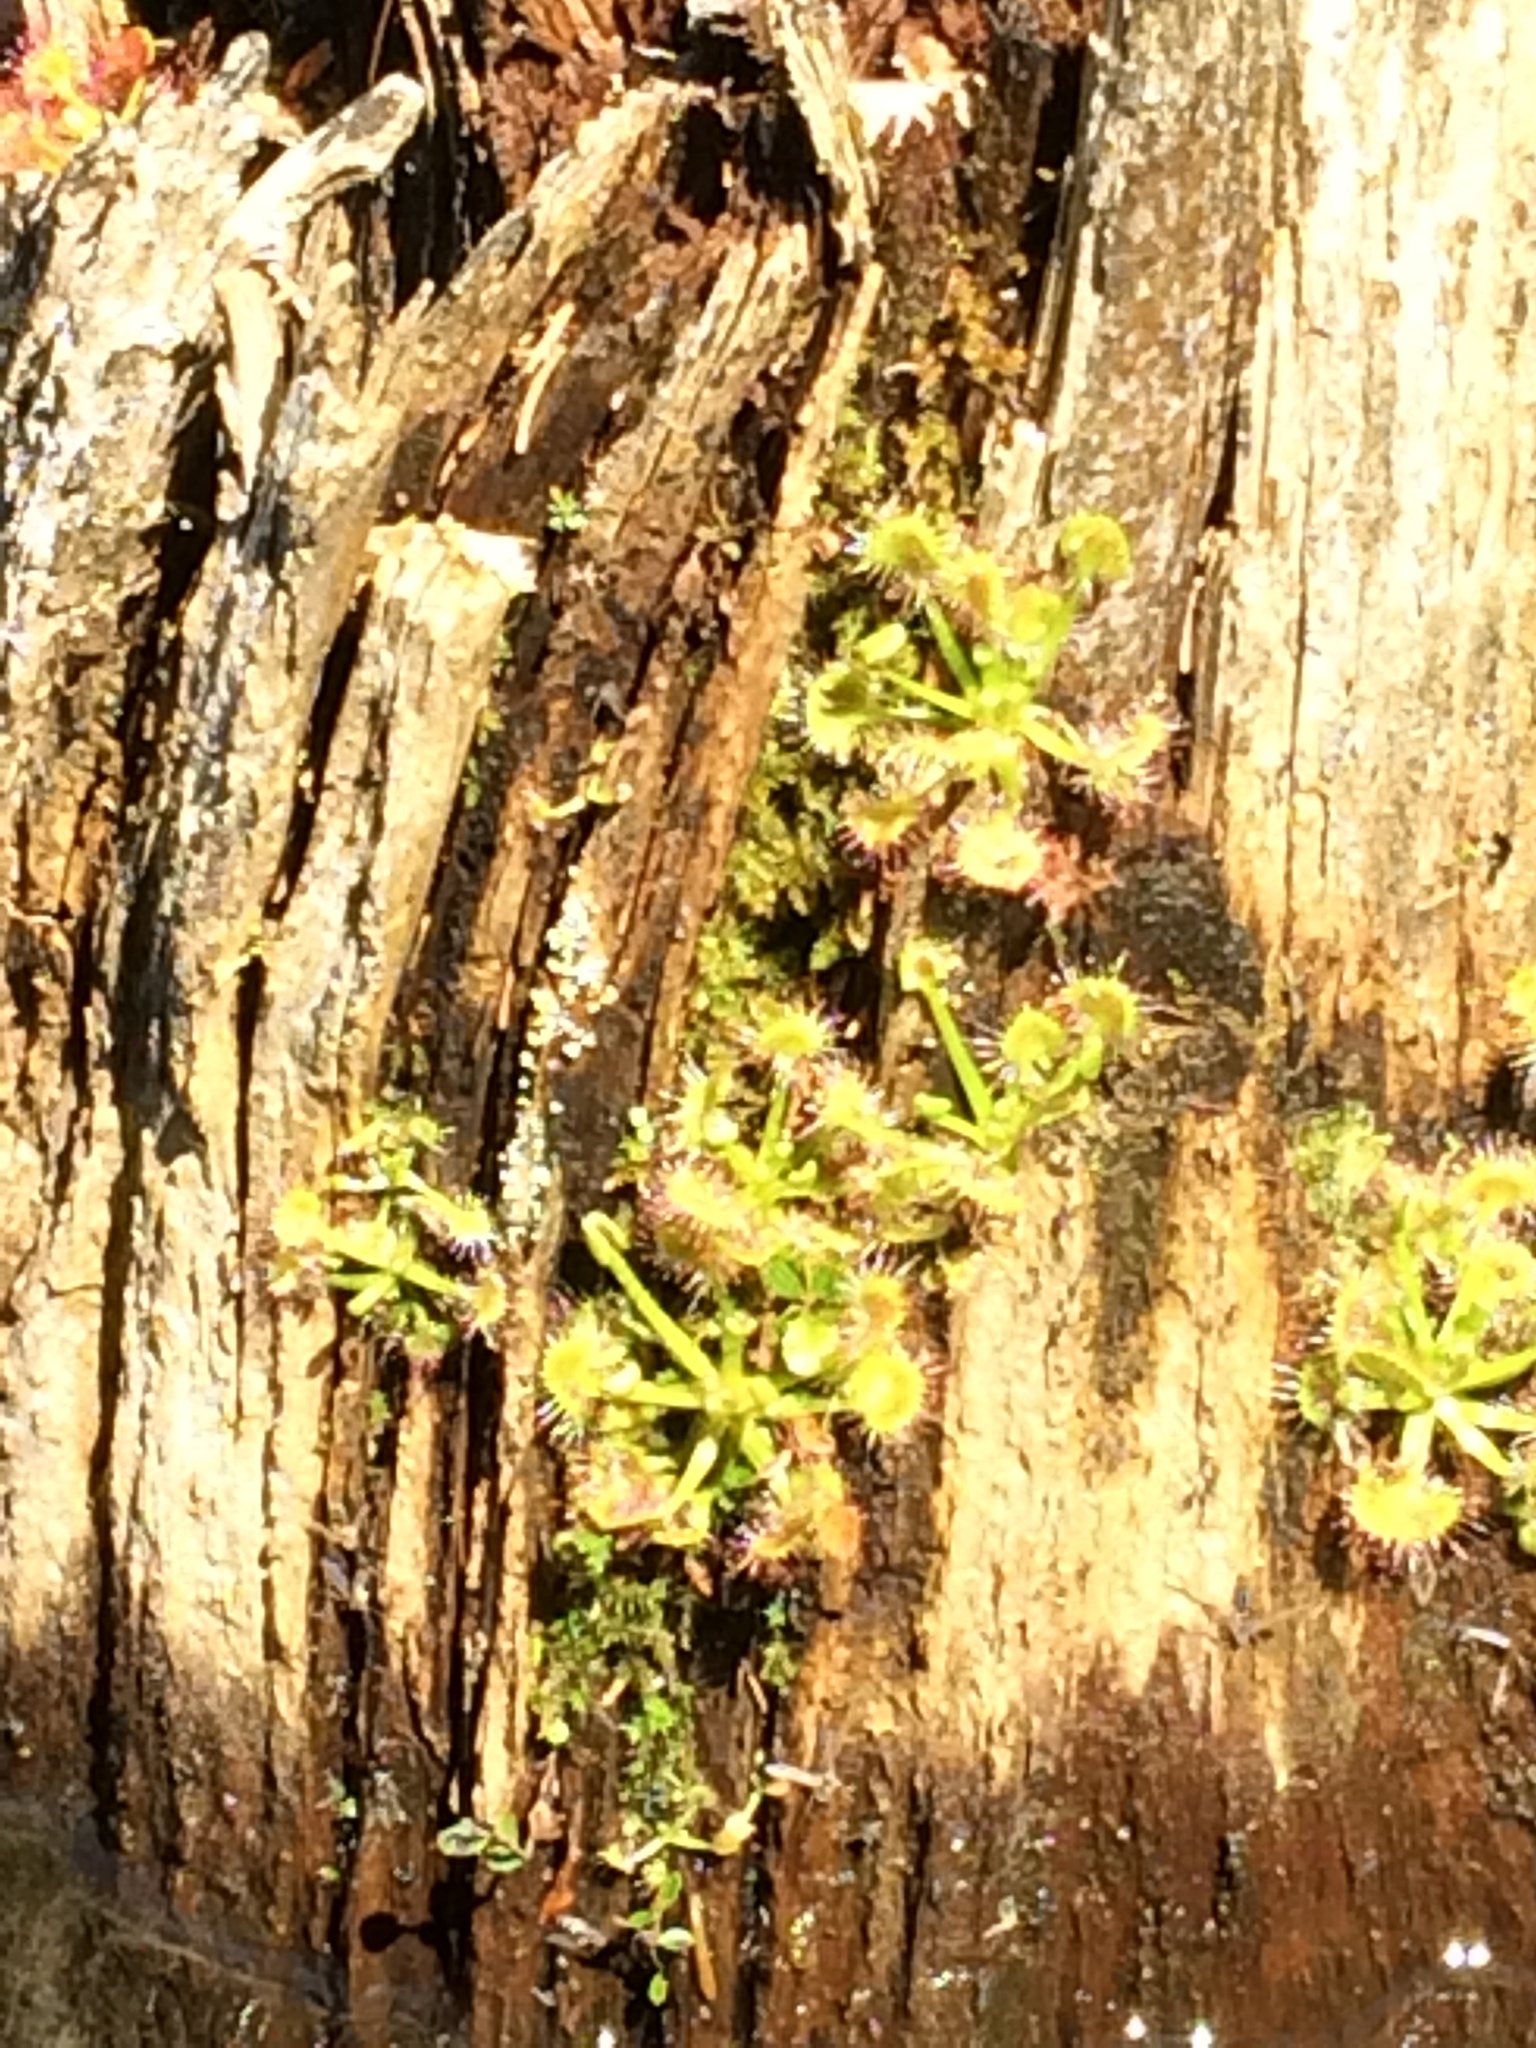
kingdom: Plantae
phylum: Tracheophyta
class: Magnoliopsida
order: Caryophyllales
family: Droseraceae
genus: Drosera
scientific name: Drosera rotundifolia
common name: Round-leaved sundew
